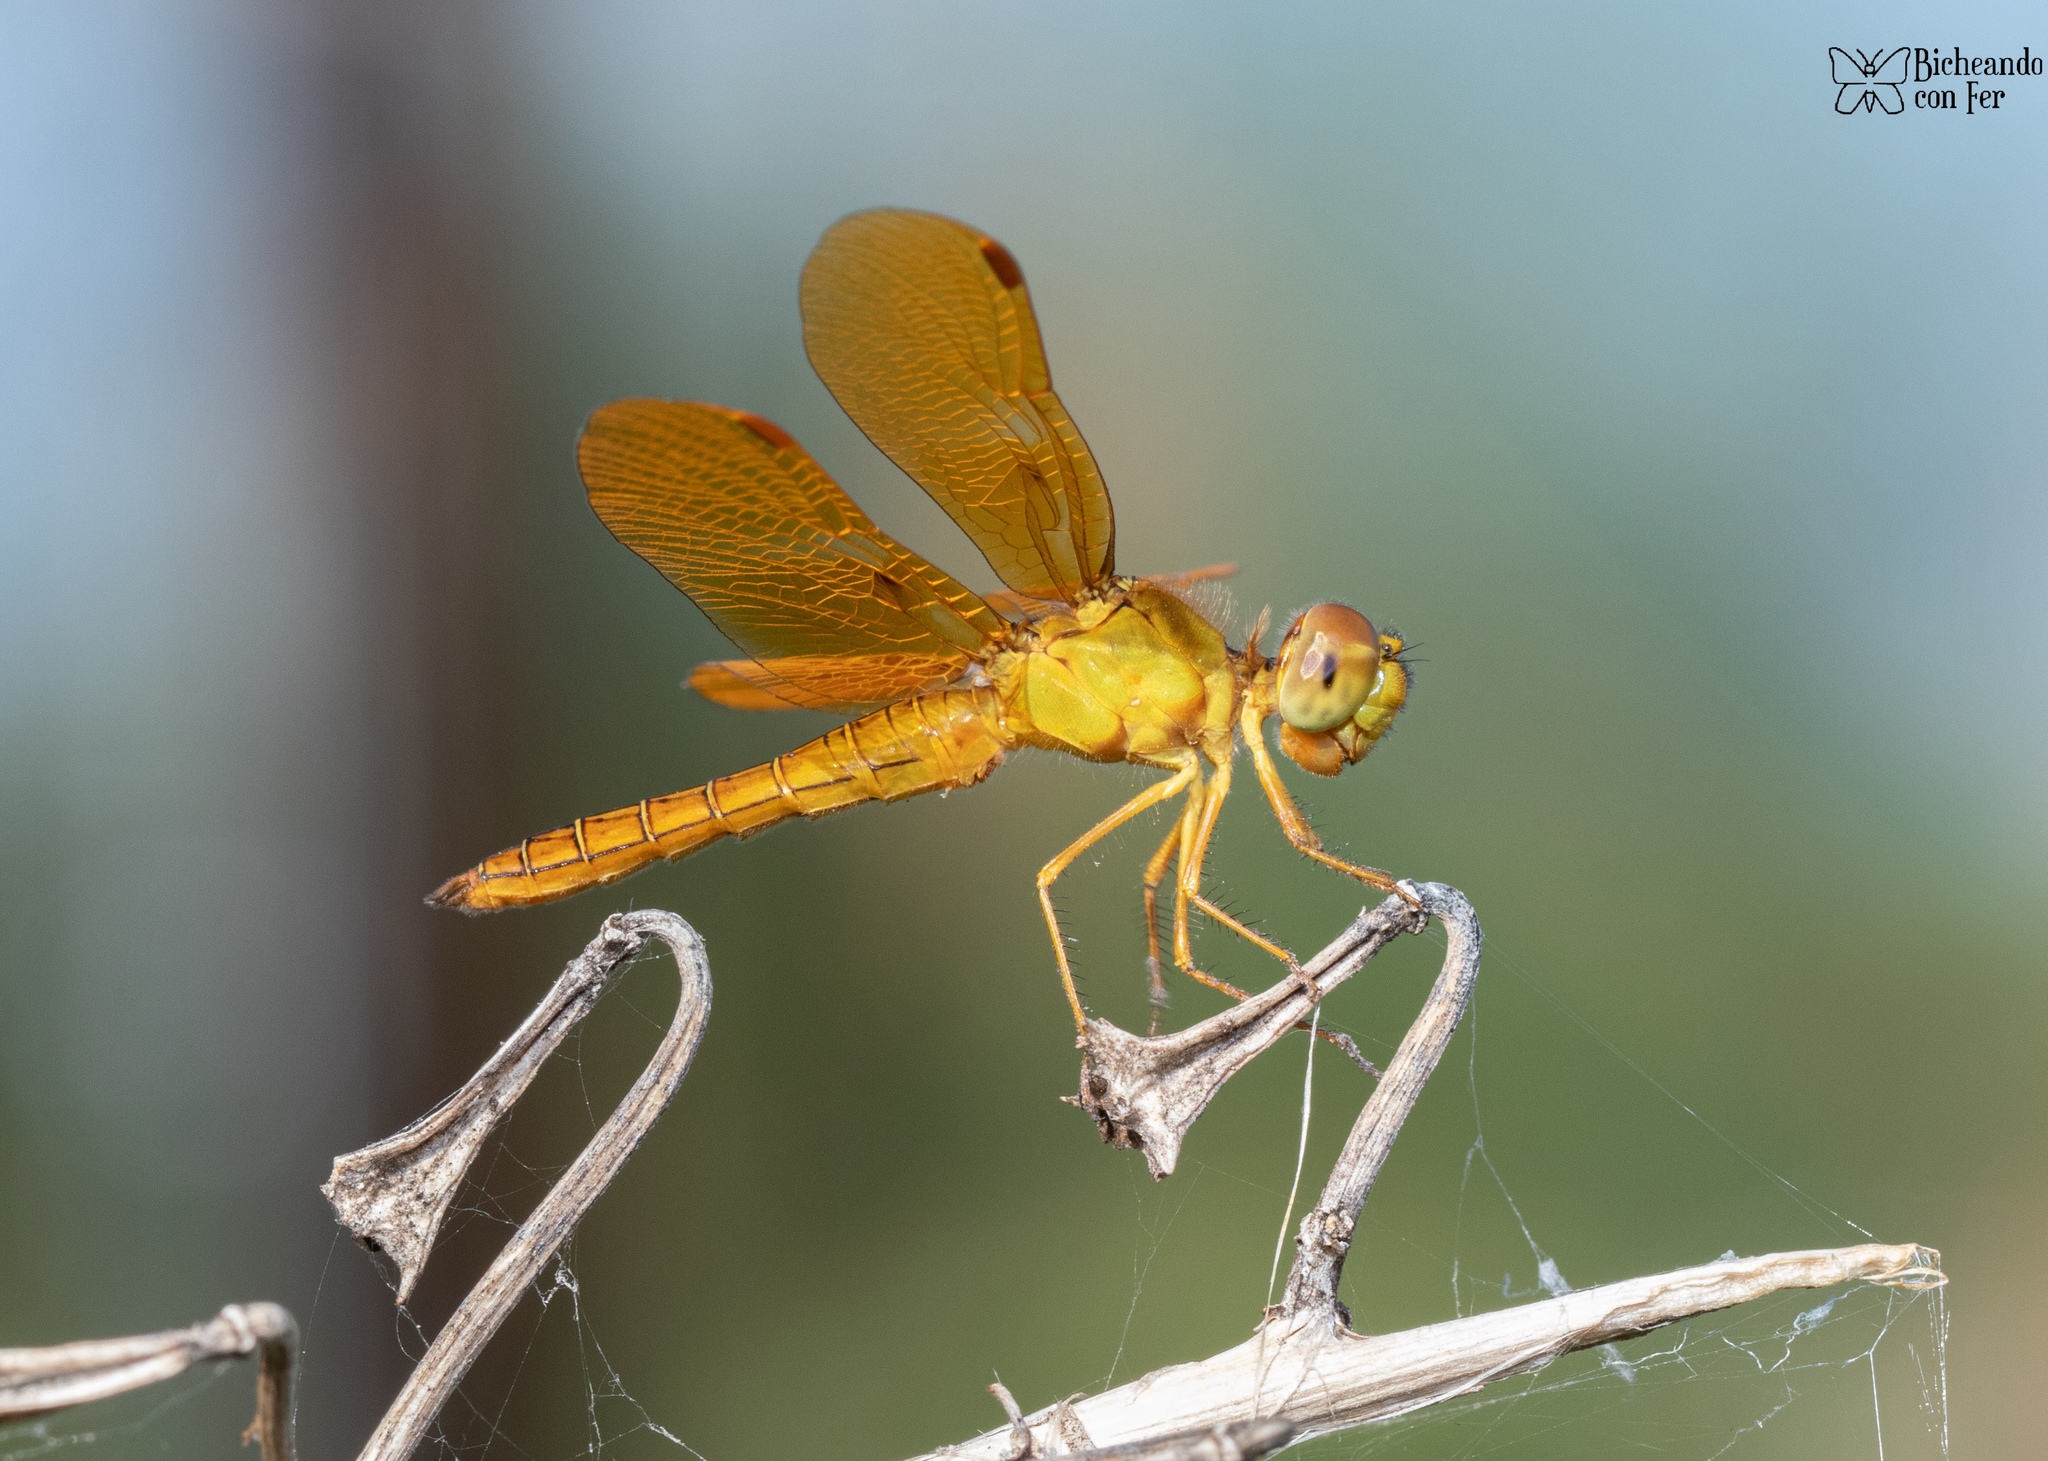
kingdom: Animalia
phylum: Arthropoda
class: Insecta
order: Odonata
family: Libellulidae
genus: Perithemis
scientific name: Perithemis intensa
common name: Mexican amberwing
